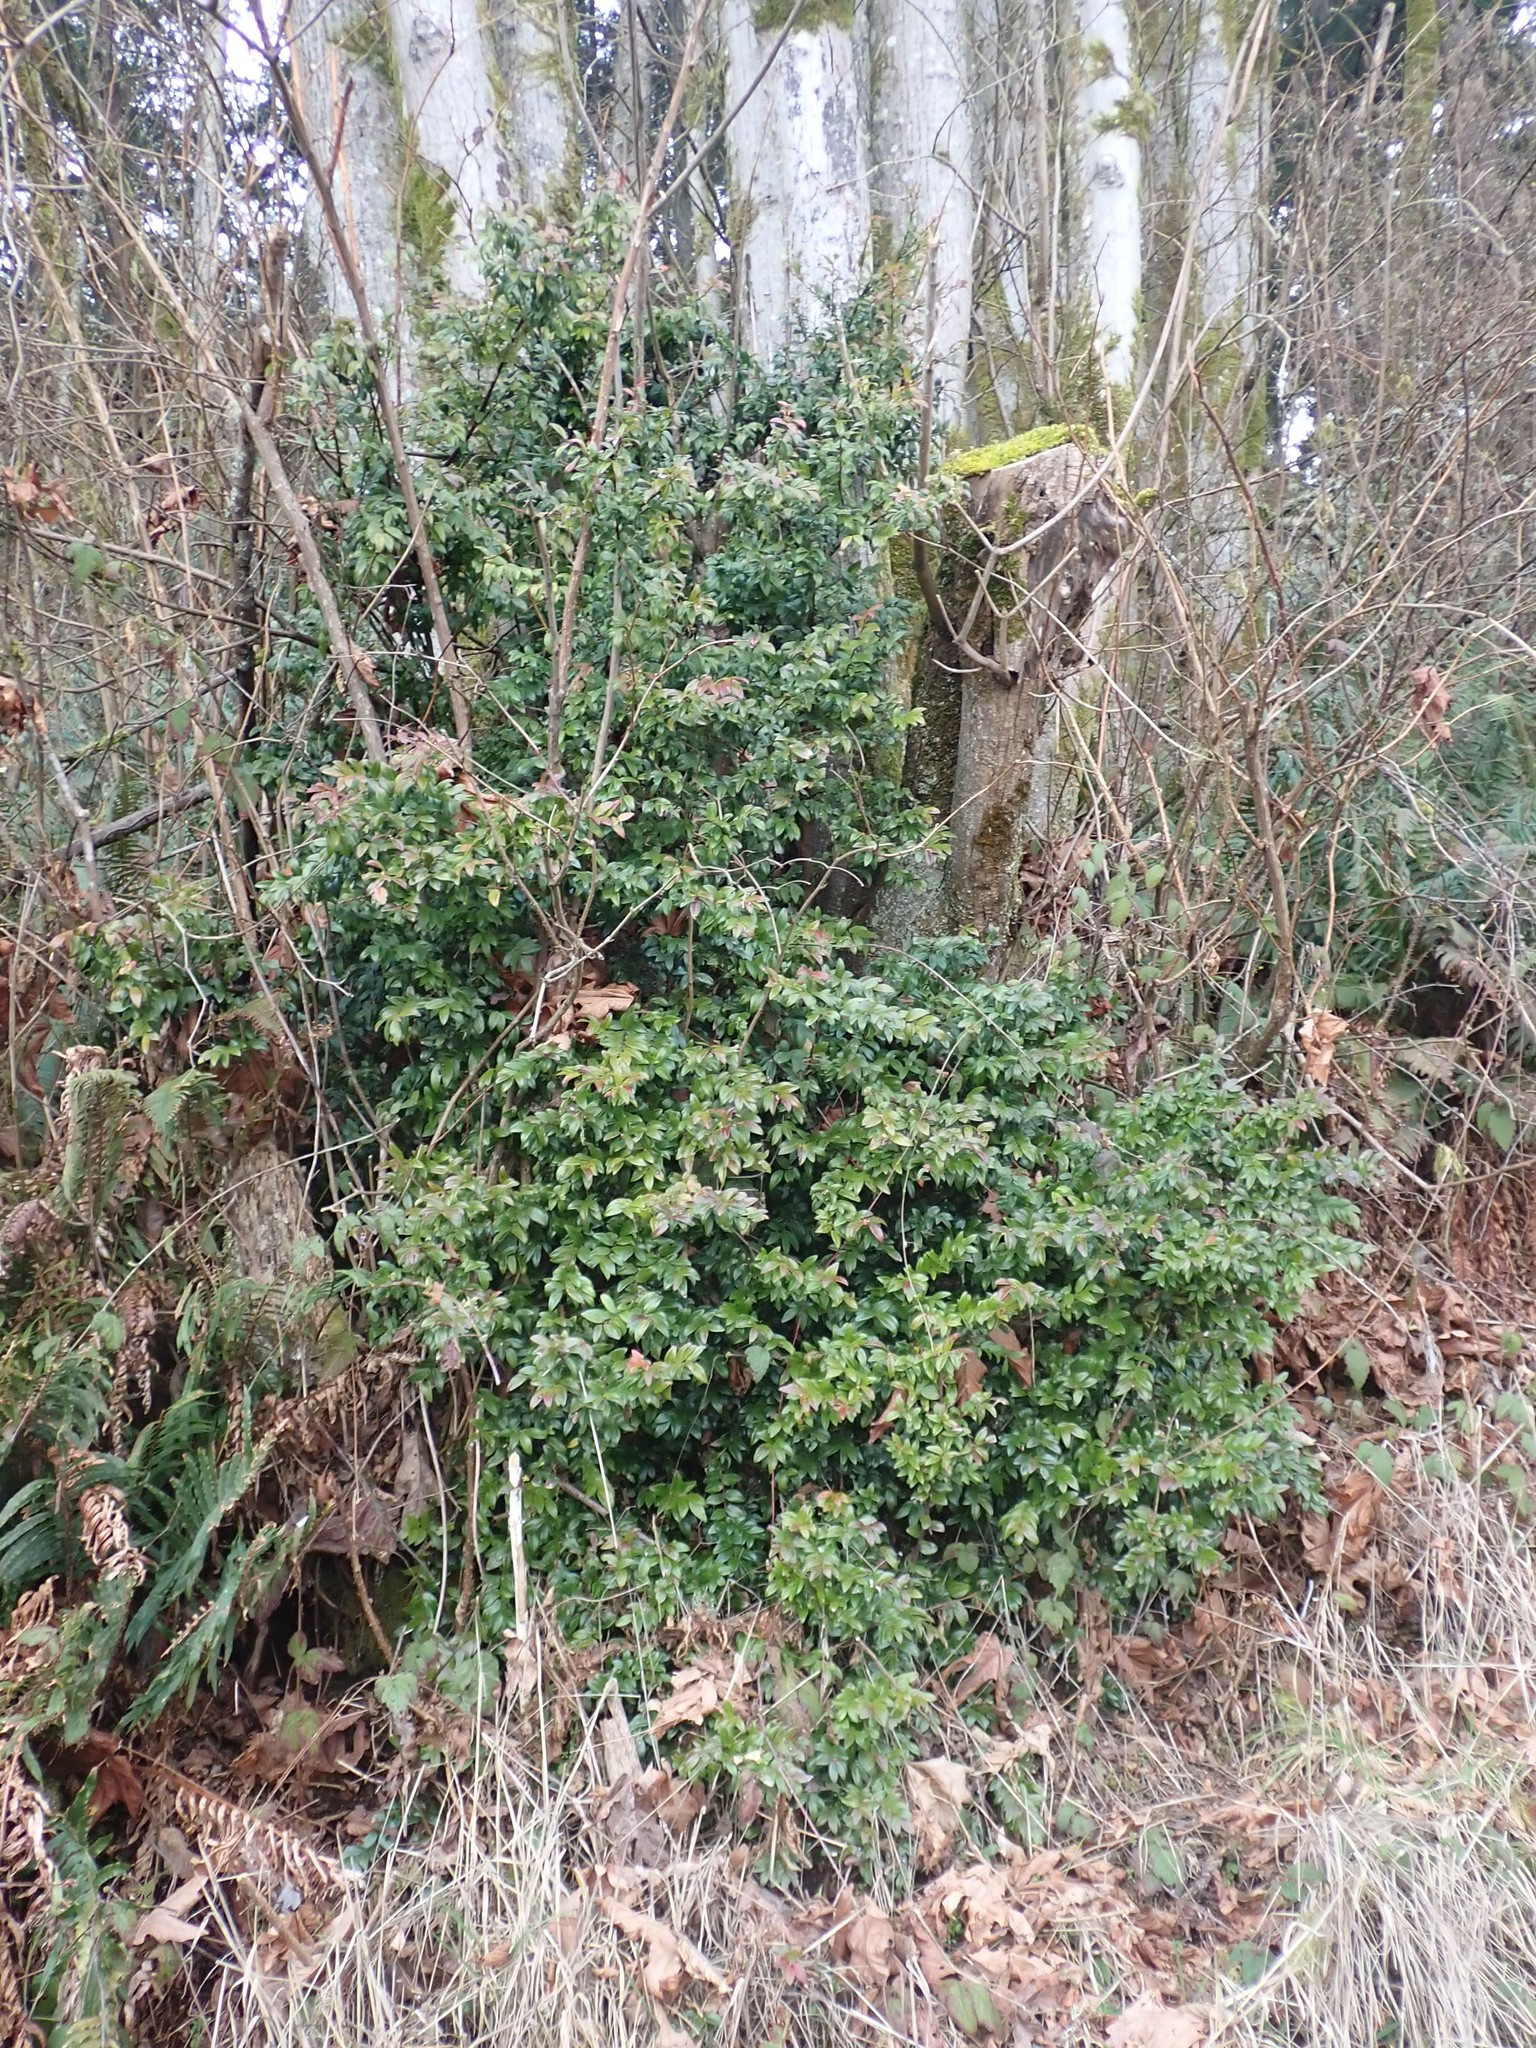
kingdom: Plantae
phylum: Tracheophyta
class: Magnoliopsida
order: Ericales
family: Ericaceae
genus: Vaccinium
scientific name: Vaccinium ovatum
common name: California-huckleberry
